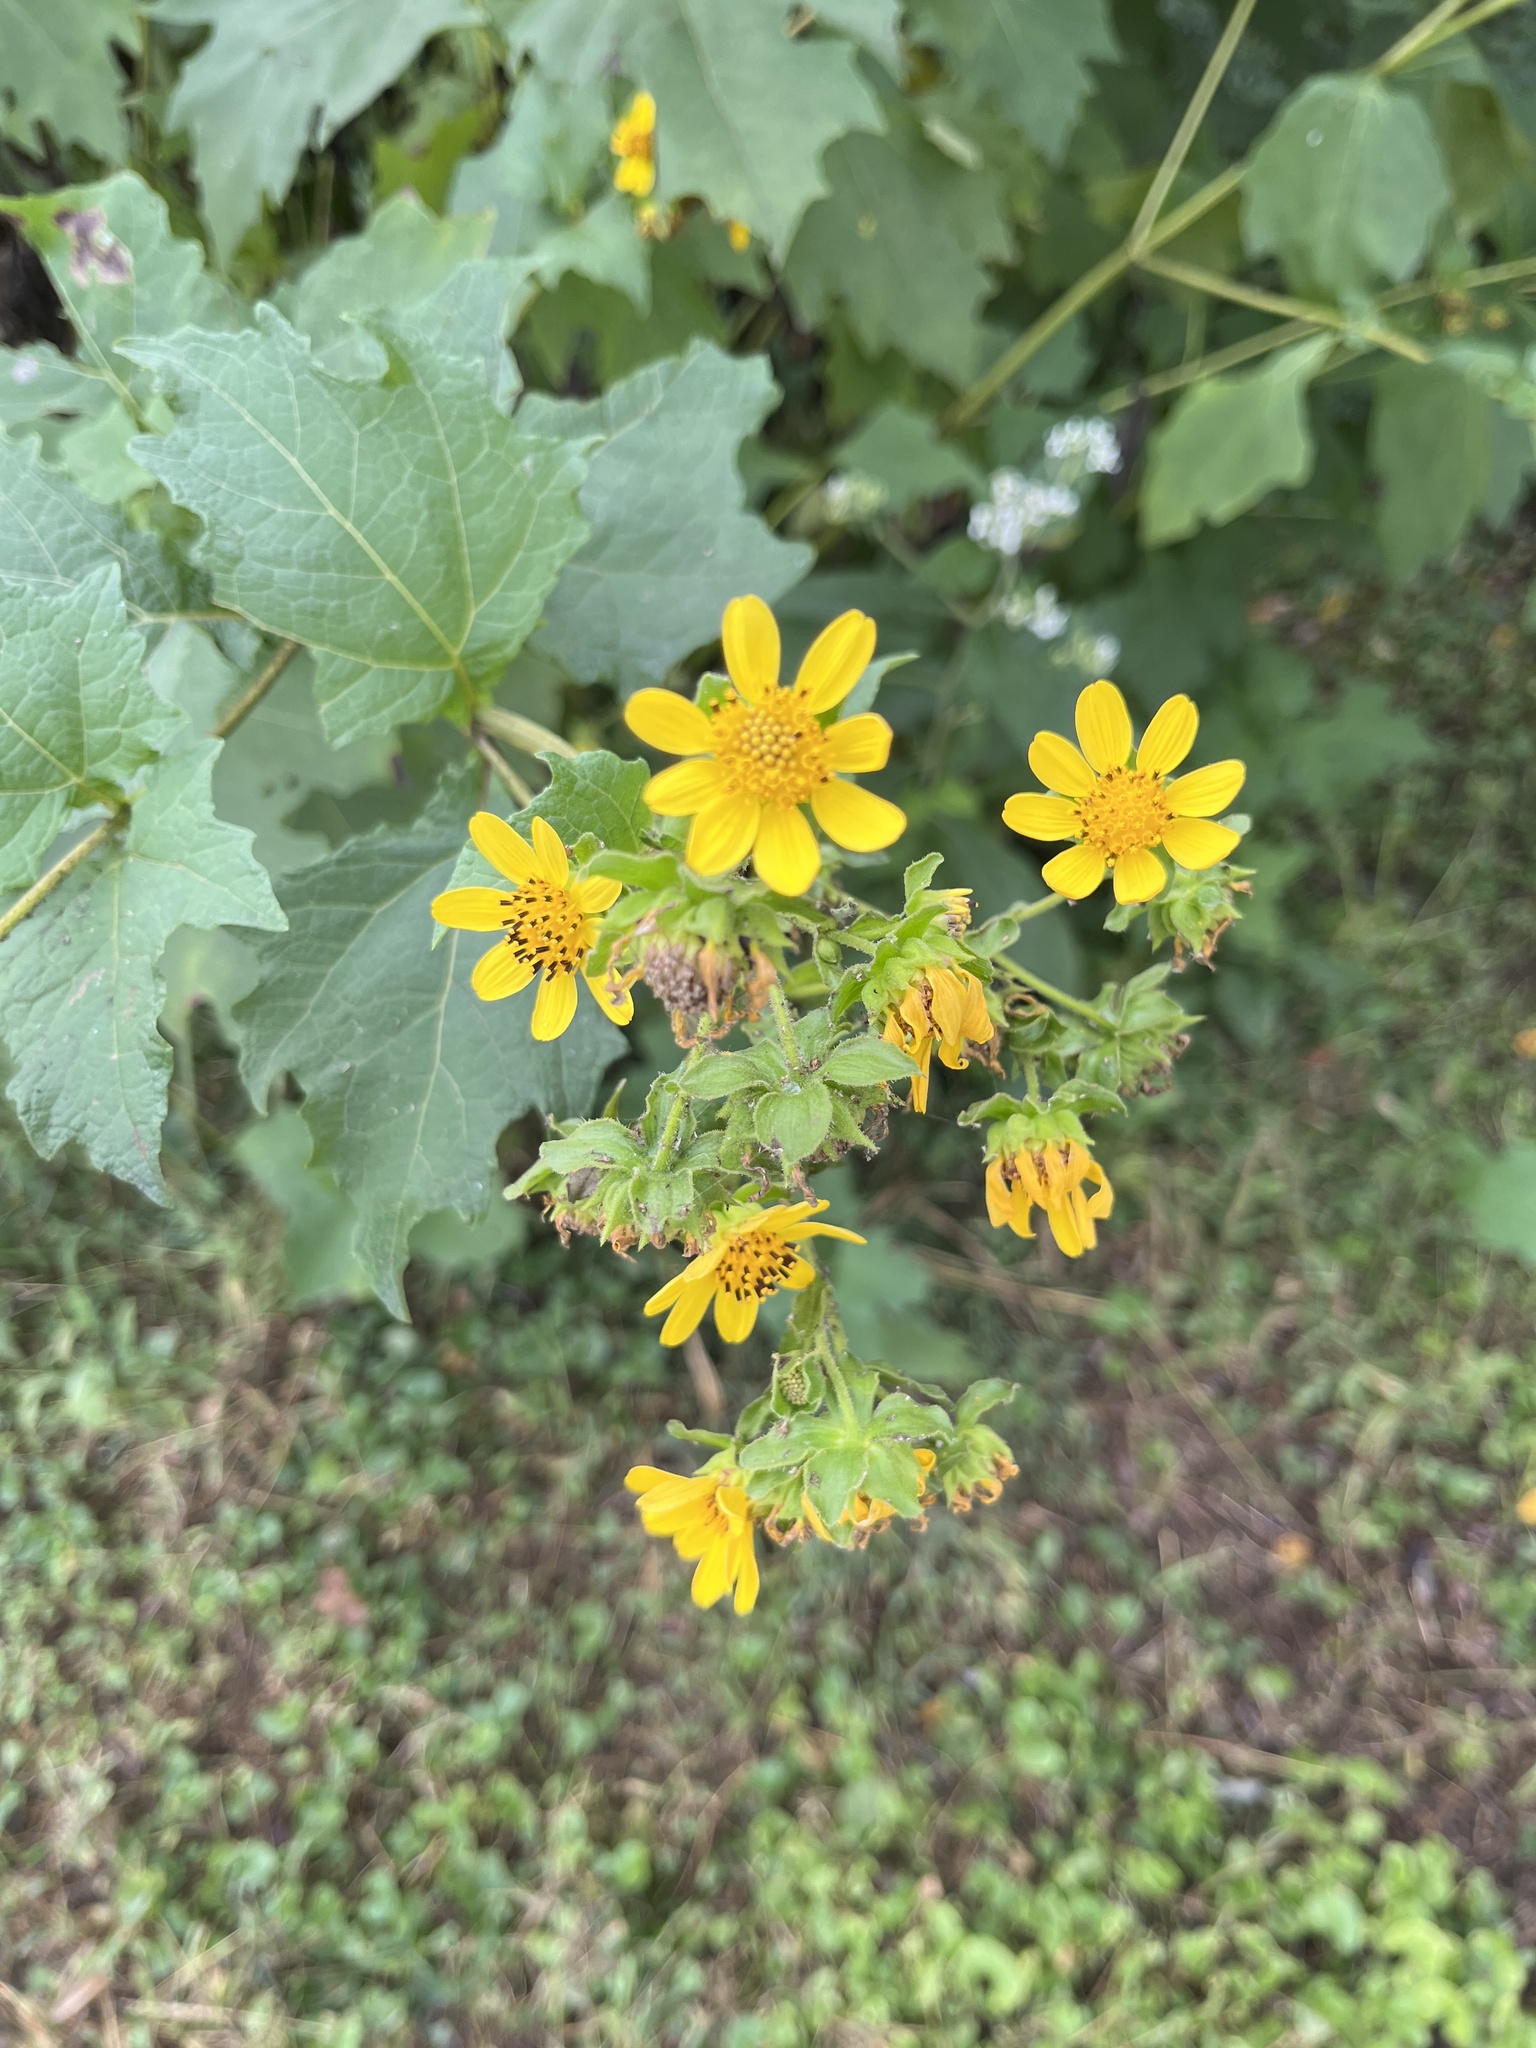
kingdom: Plantae
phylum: Tracheophyta
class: Magnoliopsida
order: Asterales
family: Asteraceae
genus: Smallanthus
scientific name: Smallanthus uvedalia
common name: Bear's-foot
